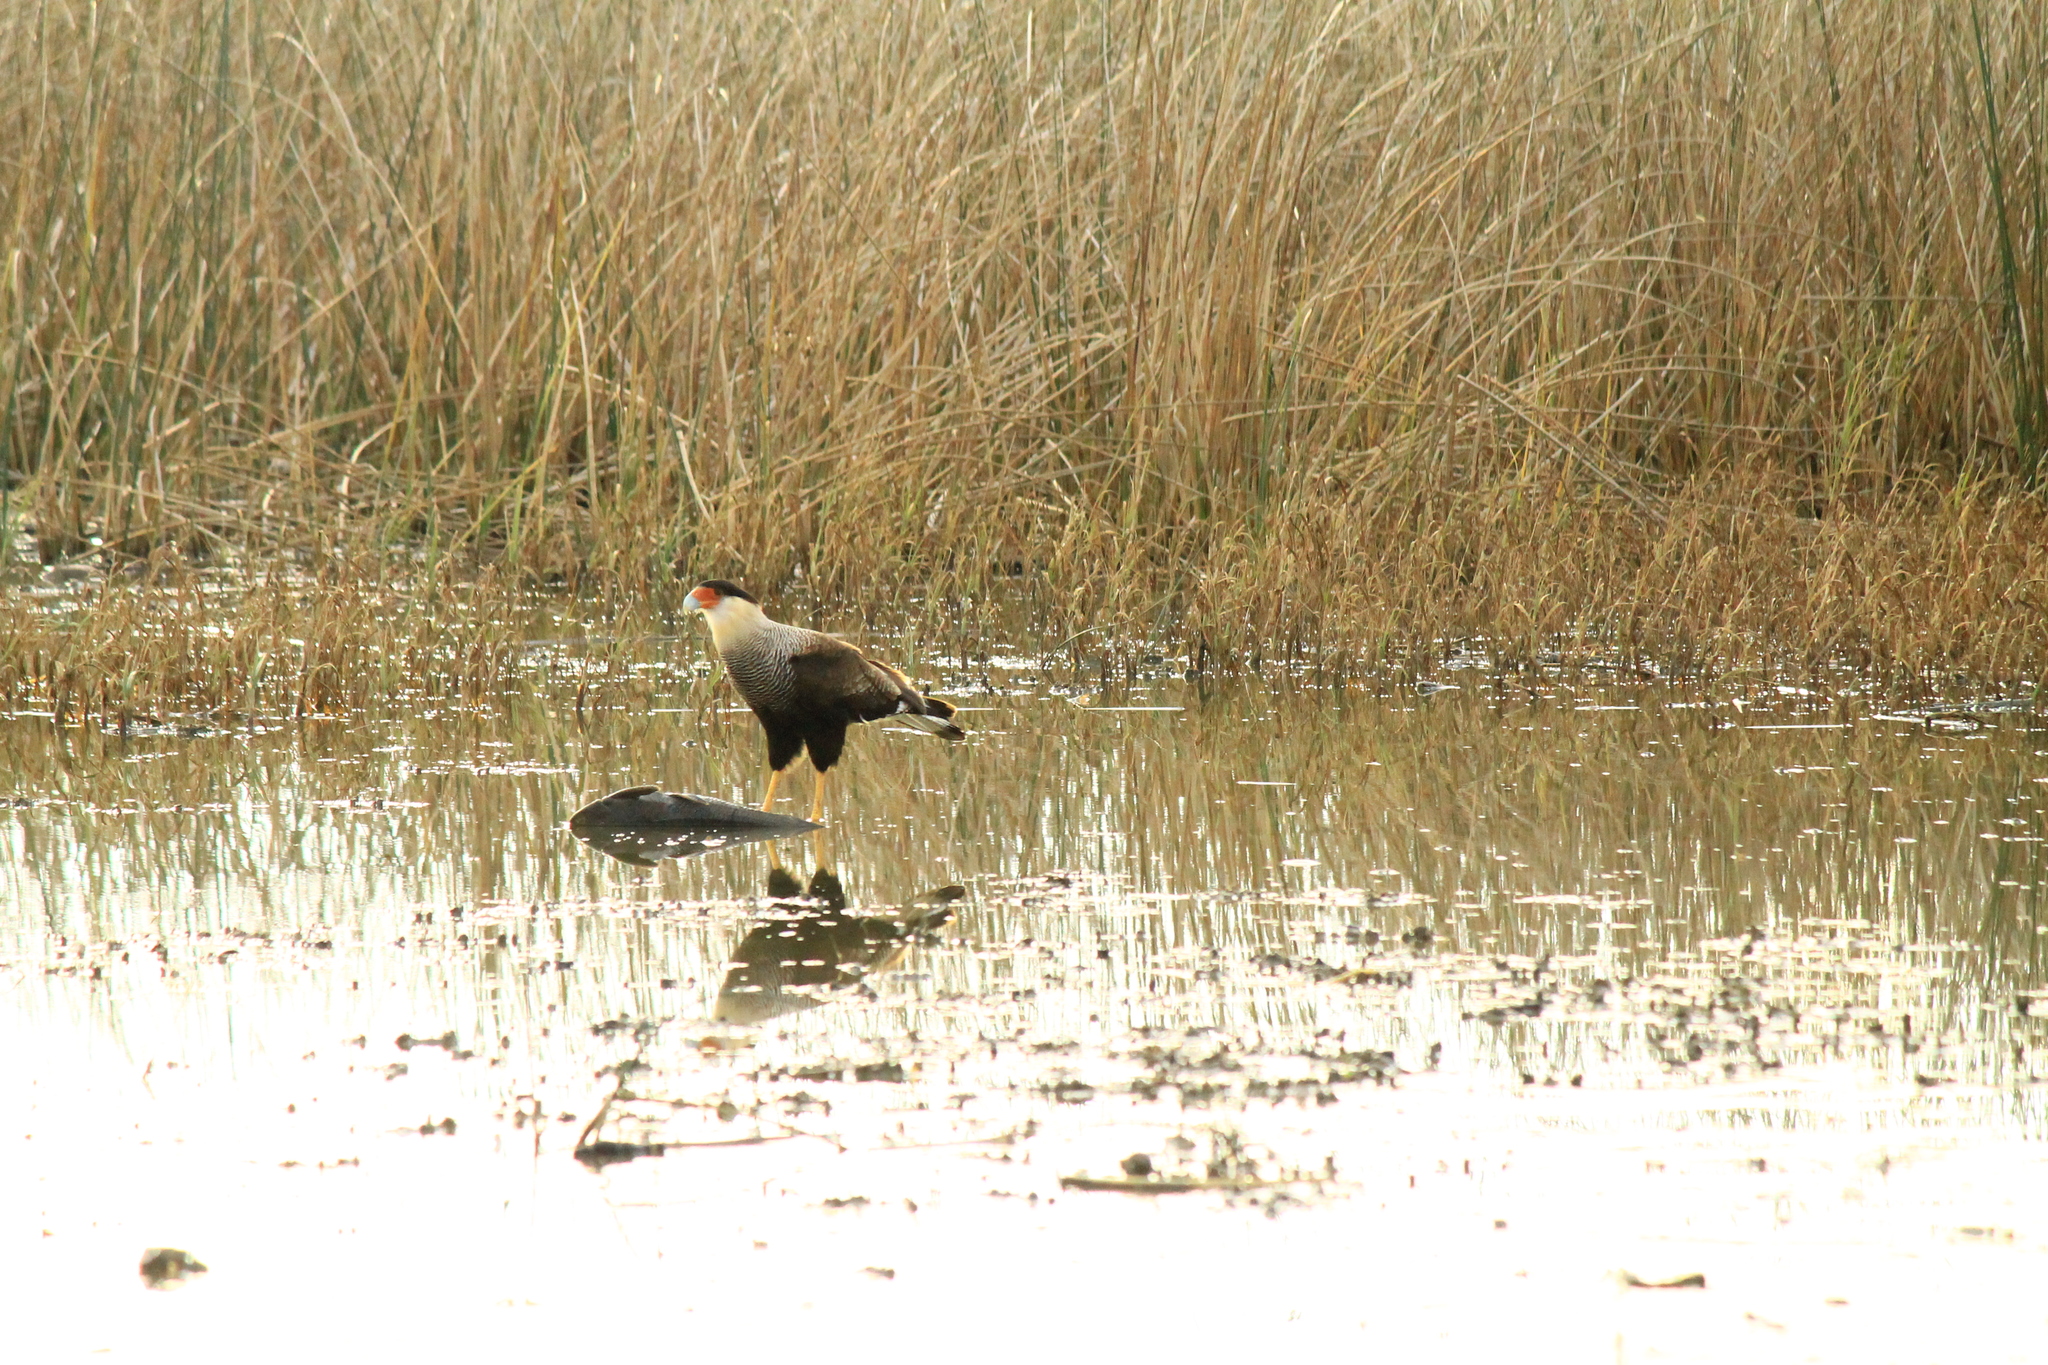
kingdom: Animalia
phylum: Chordata
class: Aves
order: Falconiformes
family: Falconidae
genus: Caracara
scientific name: Caracara plancus
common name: Southern caracara
